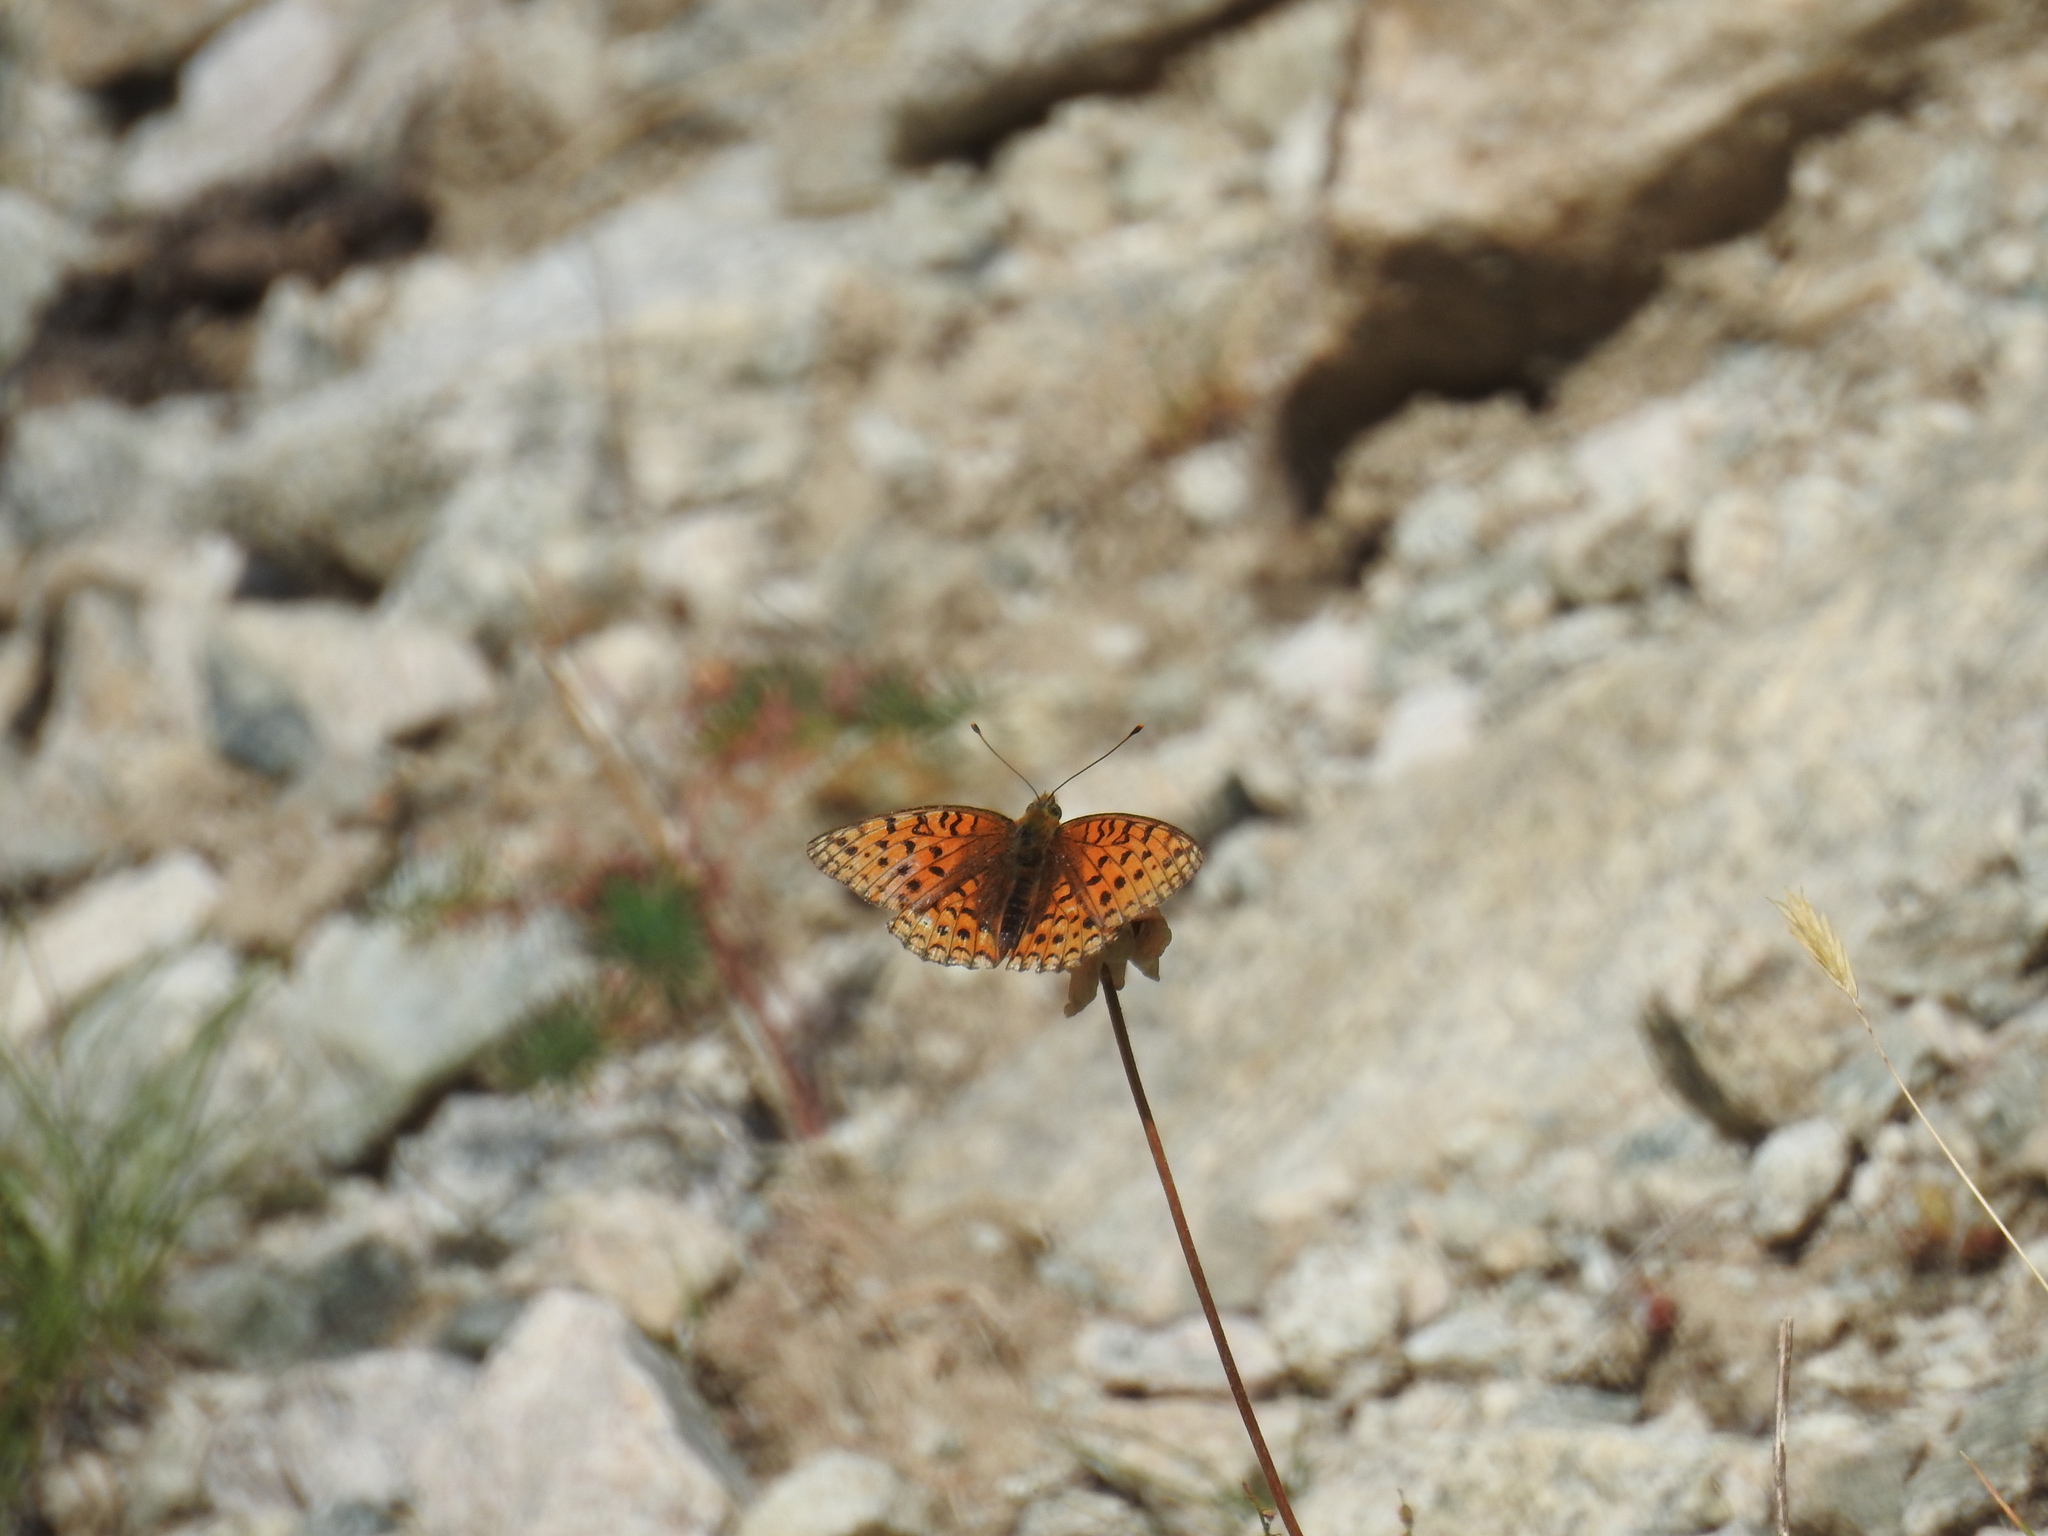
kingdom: Animalia
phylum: Arthropoda
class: Insecta
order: Lepidoptera
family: Nymphalidae
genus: Fabriciana
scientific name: Fabriciana niobe
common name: Niobe fritillary
